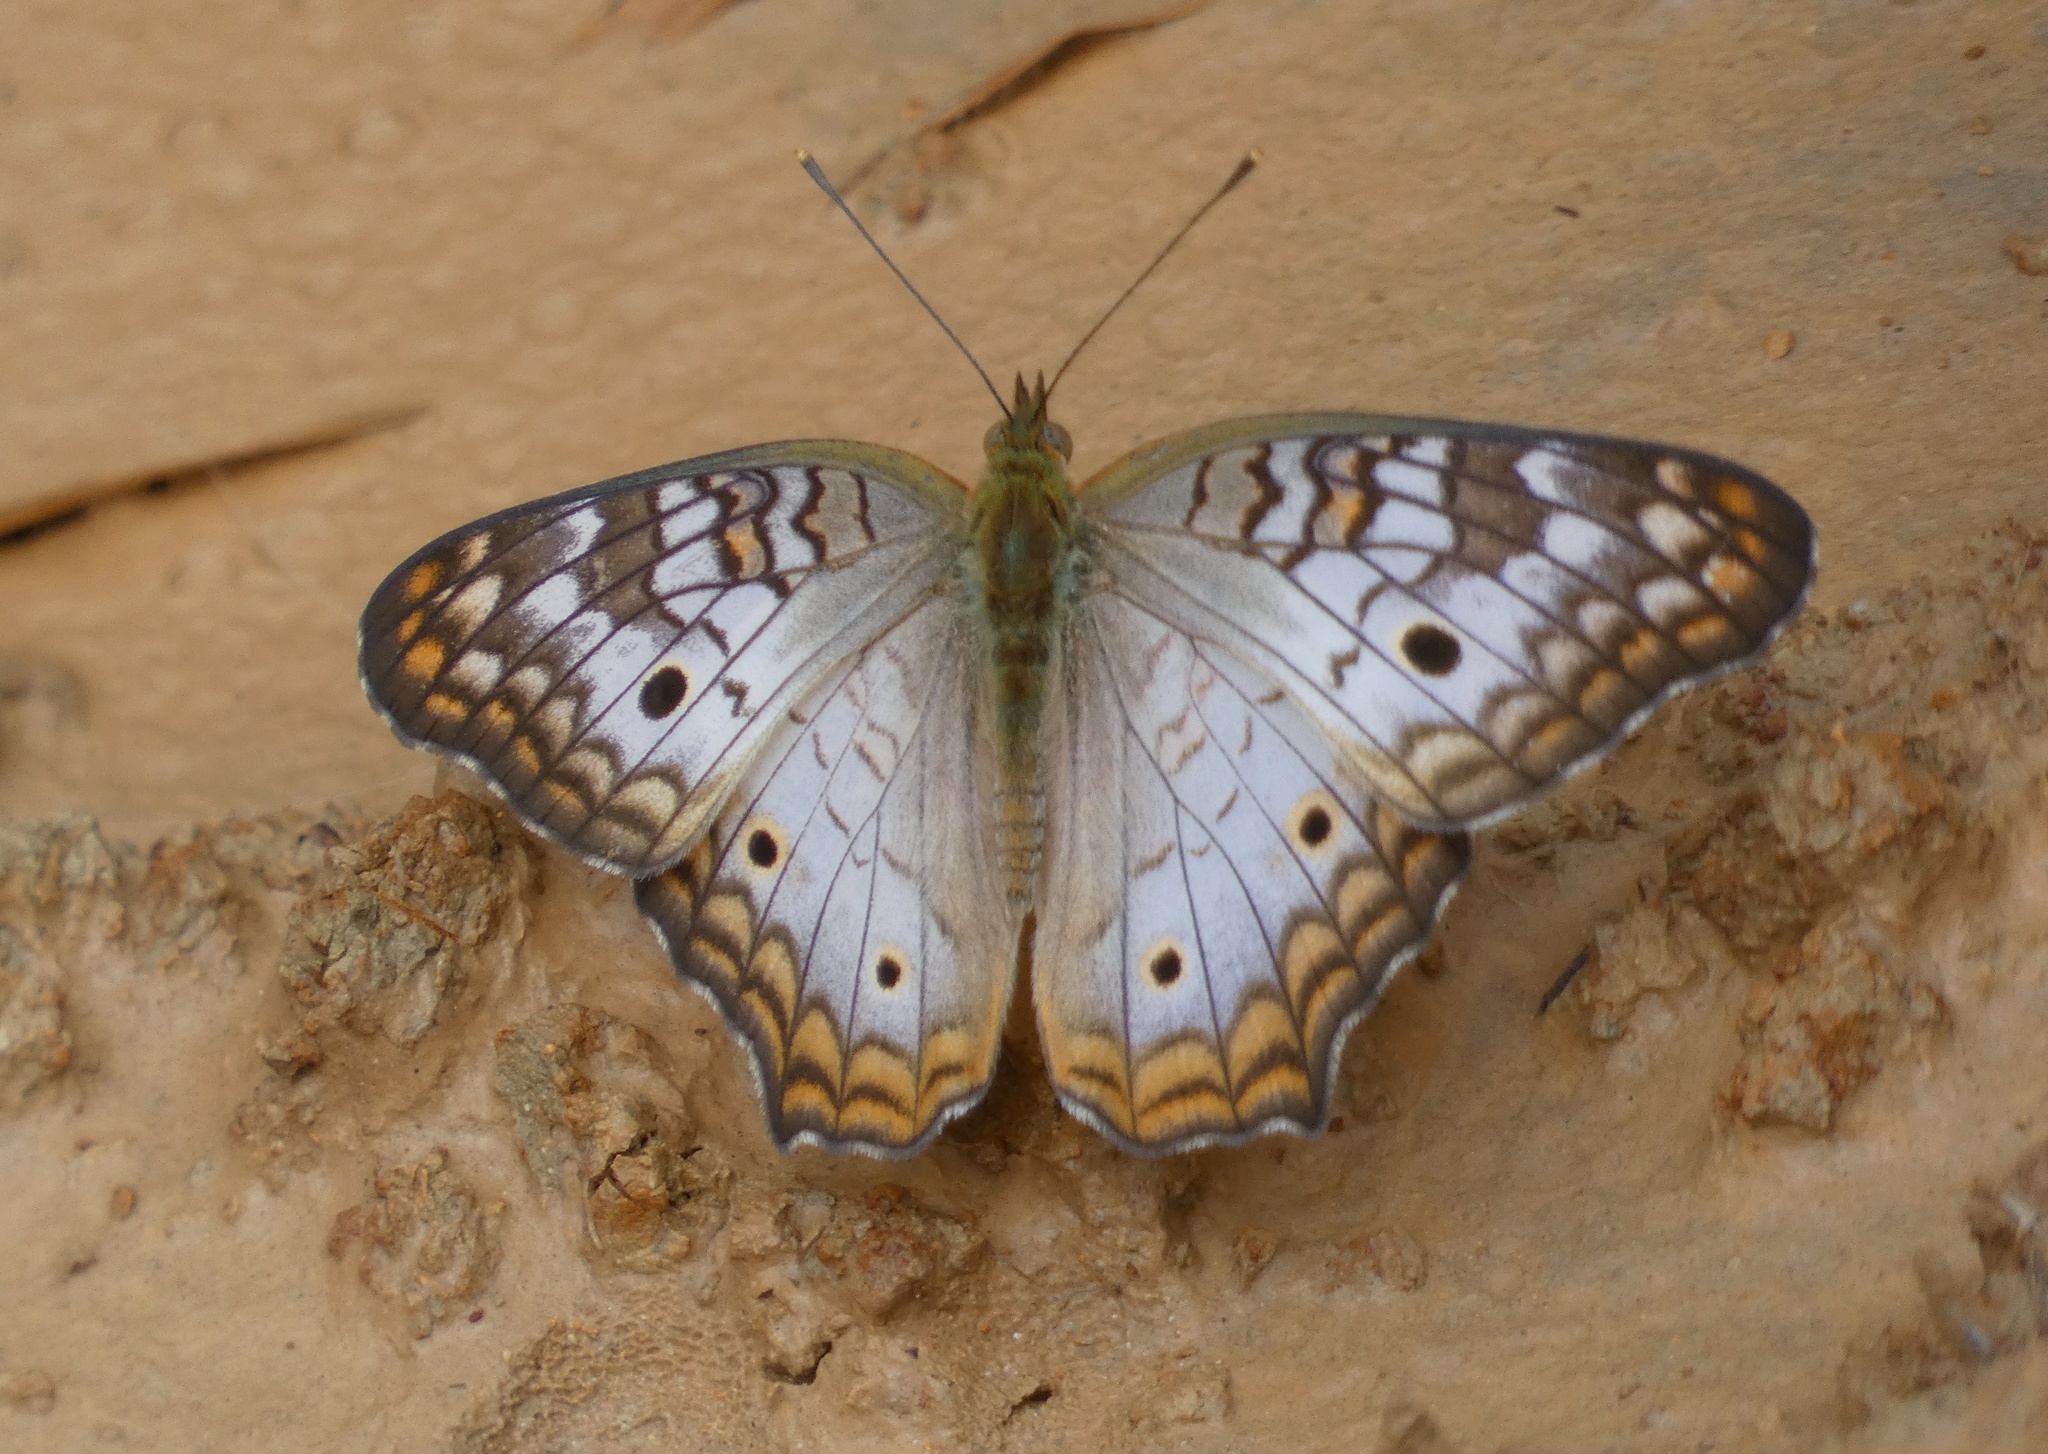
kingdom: Animalia
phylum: Arthropoda
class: Insecta
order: Lepidoptera
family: Nymphalidae
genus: Anartia
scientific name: Anartia jatrophae
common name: White peacock
